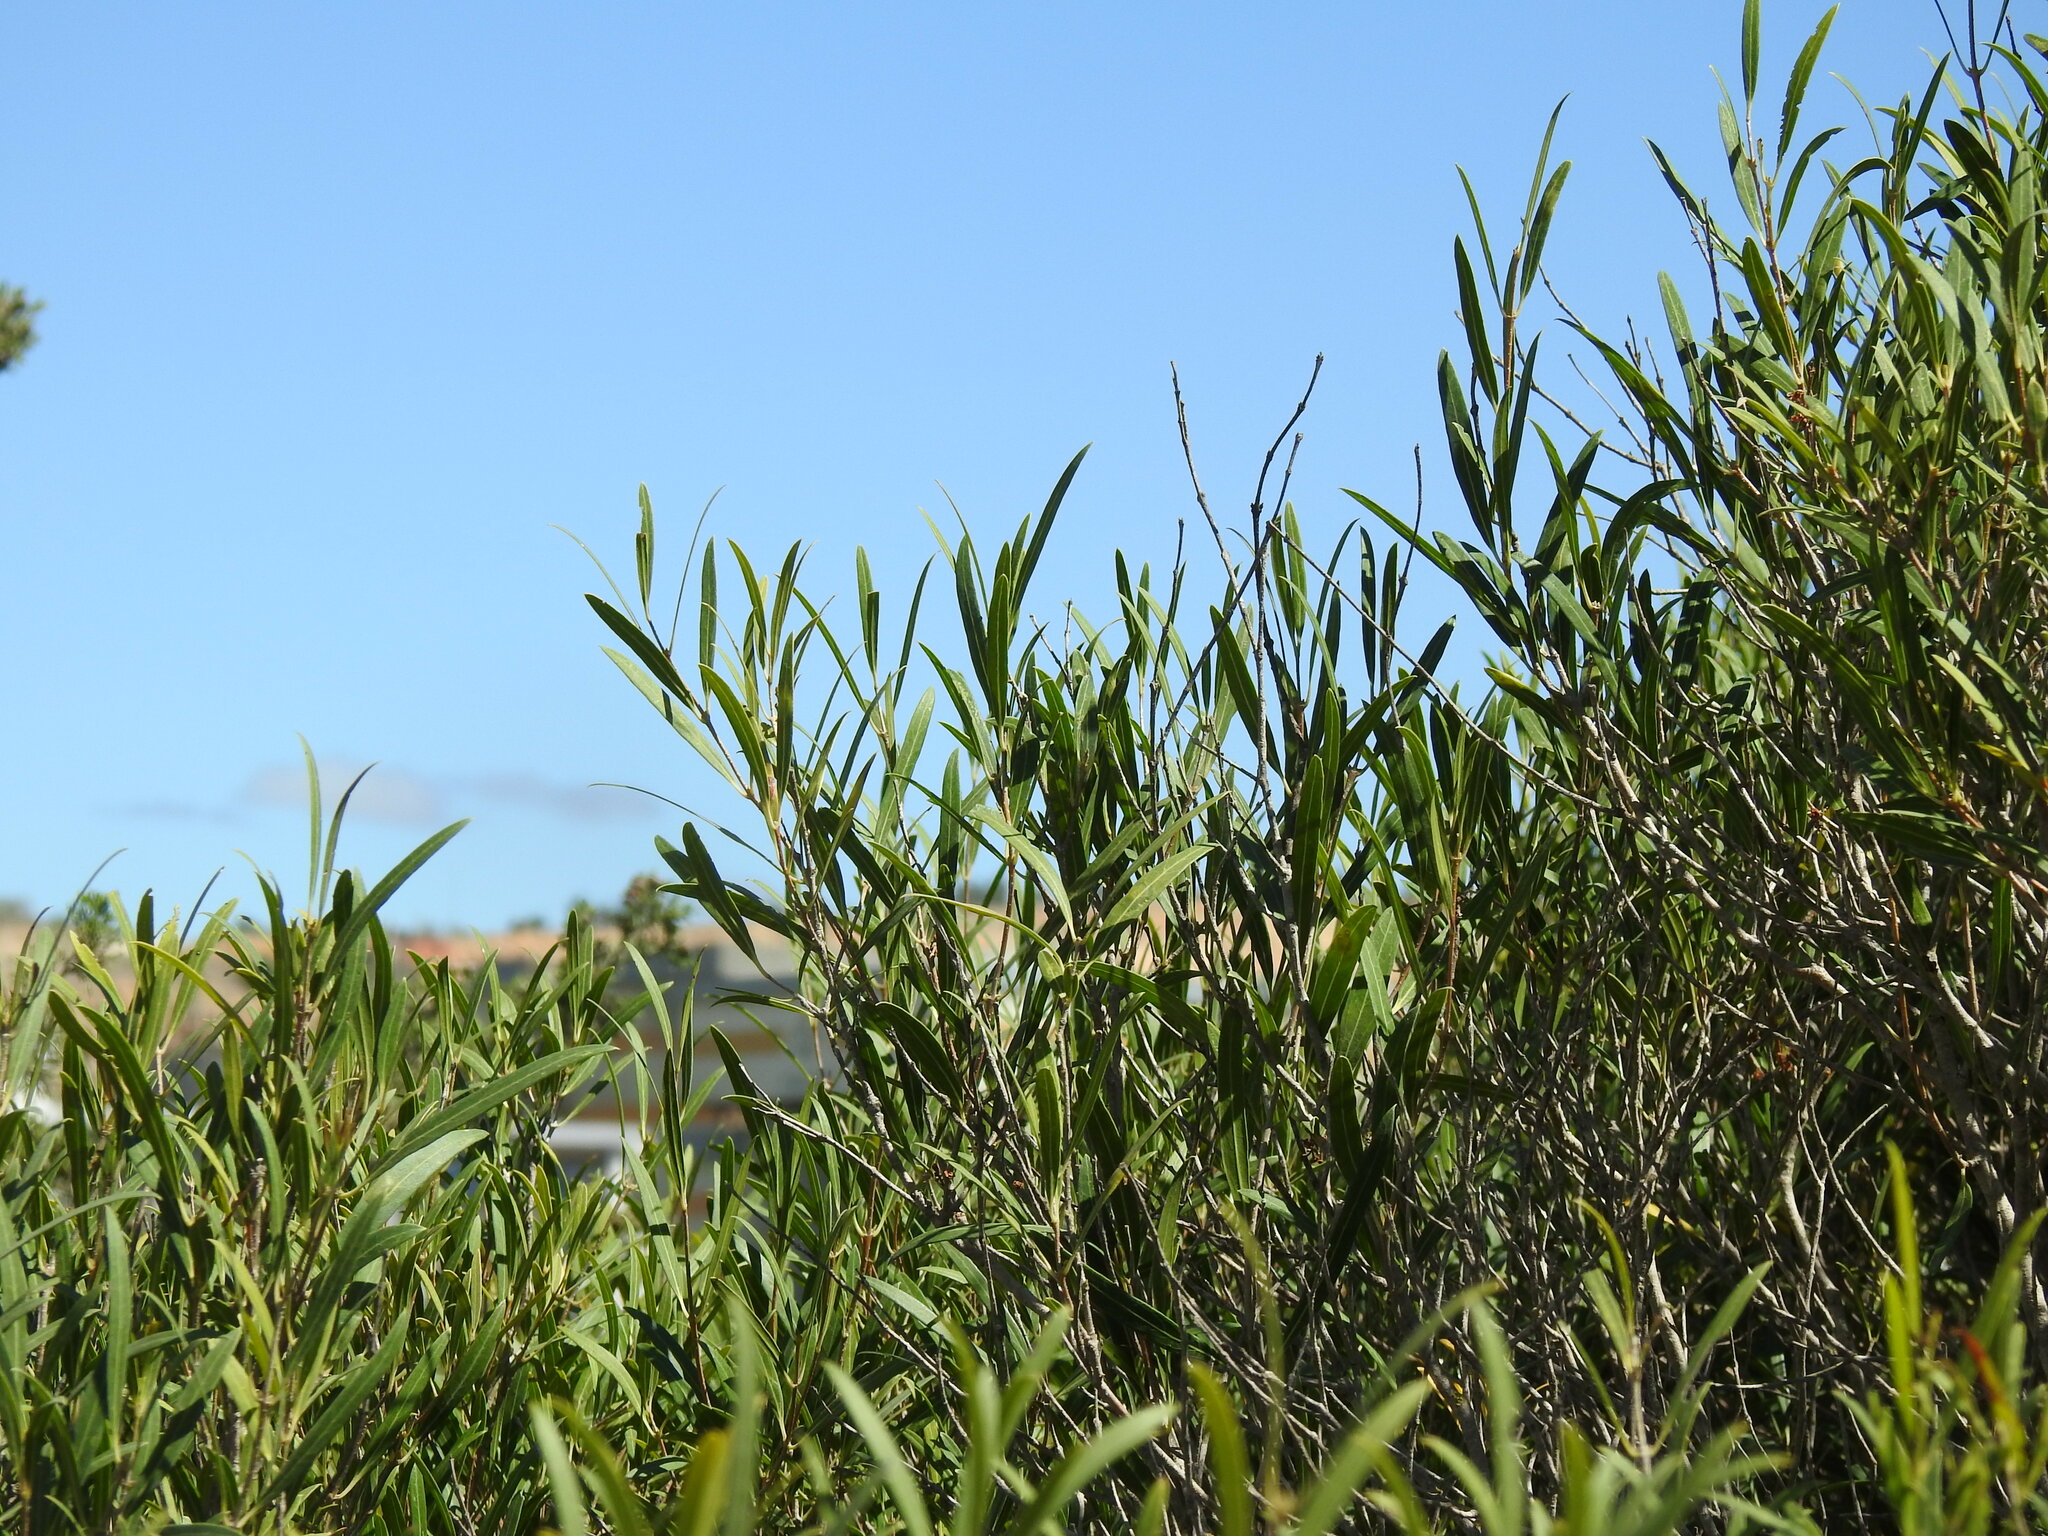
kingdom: Plantae
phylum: Tracheophyta
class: Magnoliopsida
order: Lamiales
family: Oleaceae
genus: Phillyrea
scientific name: Phillyrea angustifolia
